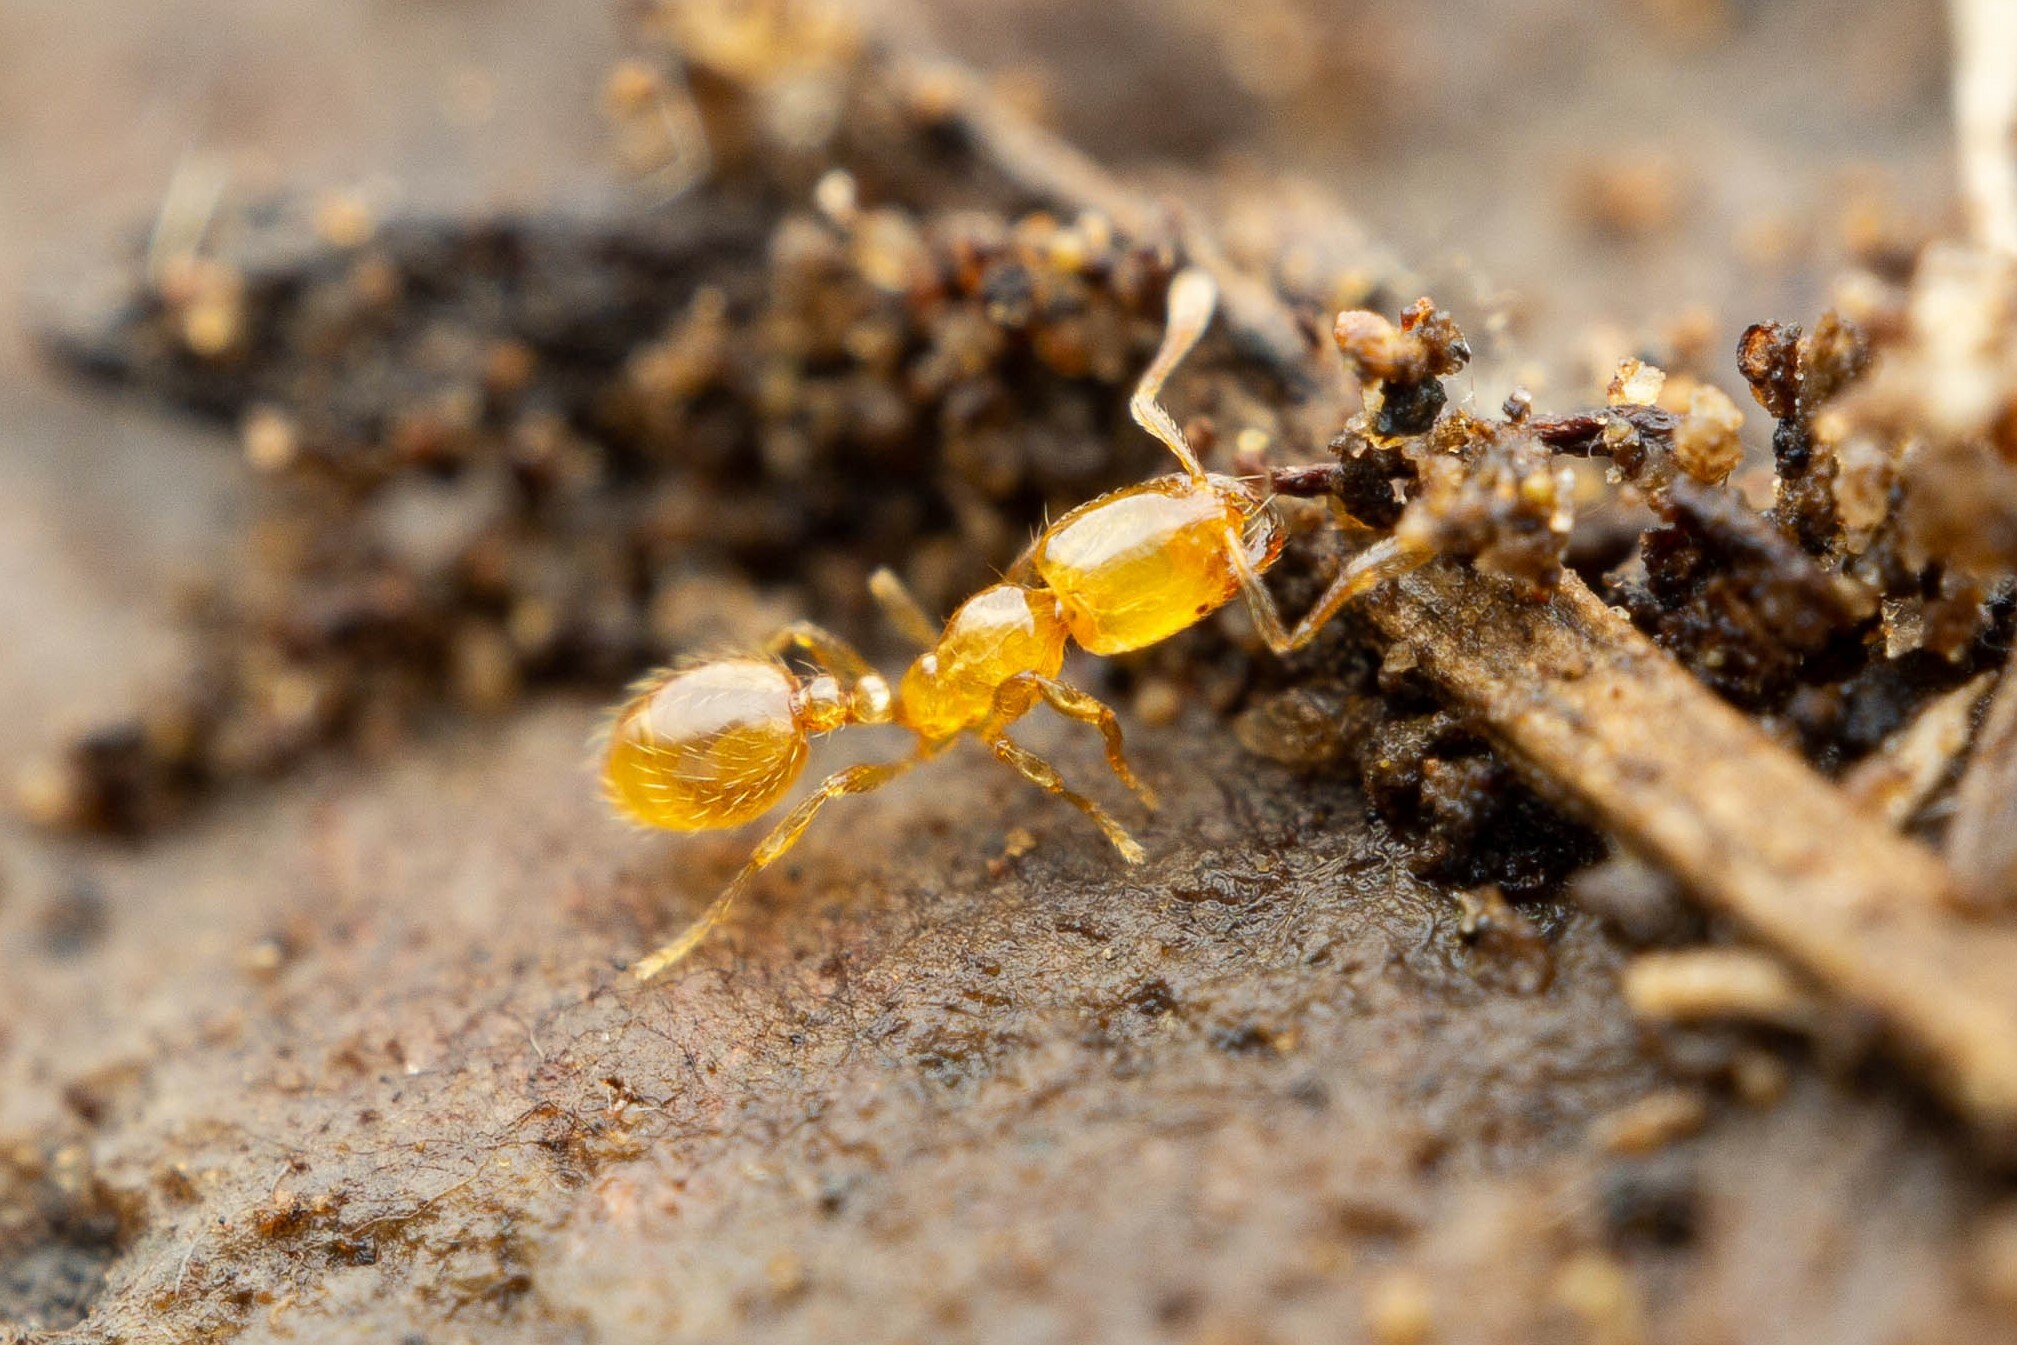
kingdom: Animalia
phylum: Arthropoda
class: Insecta
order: Hymenoptera
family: Formicidae
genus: Solenopsis
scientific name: Solenopsis
